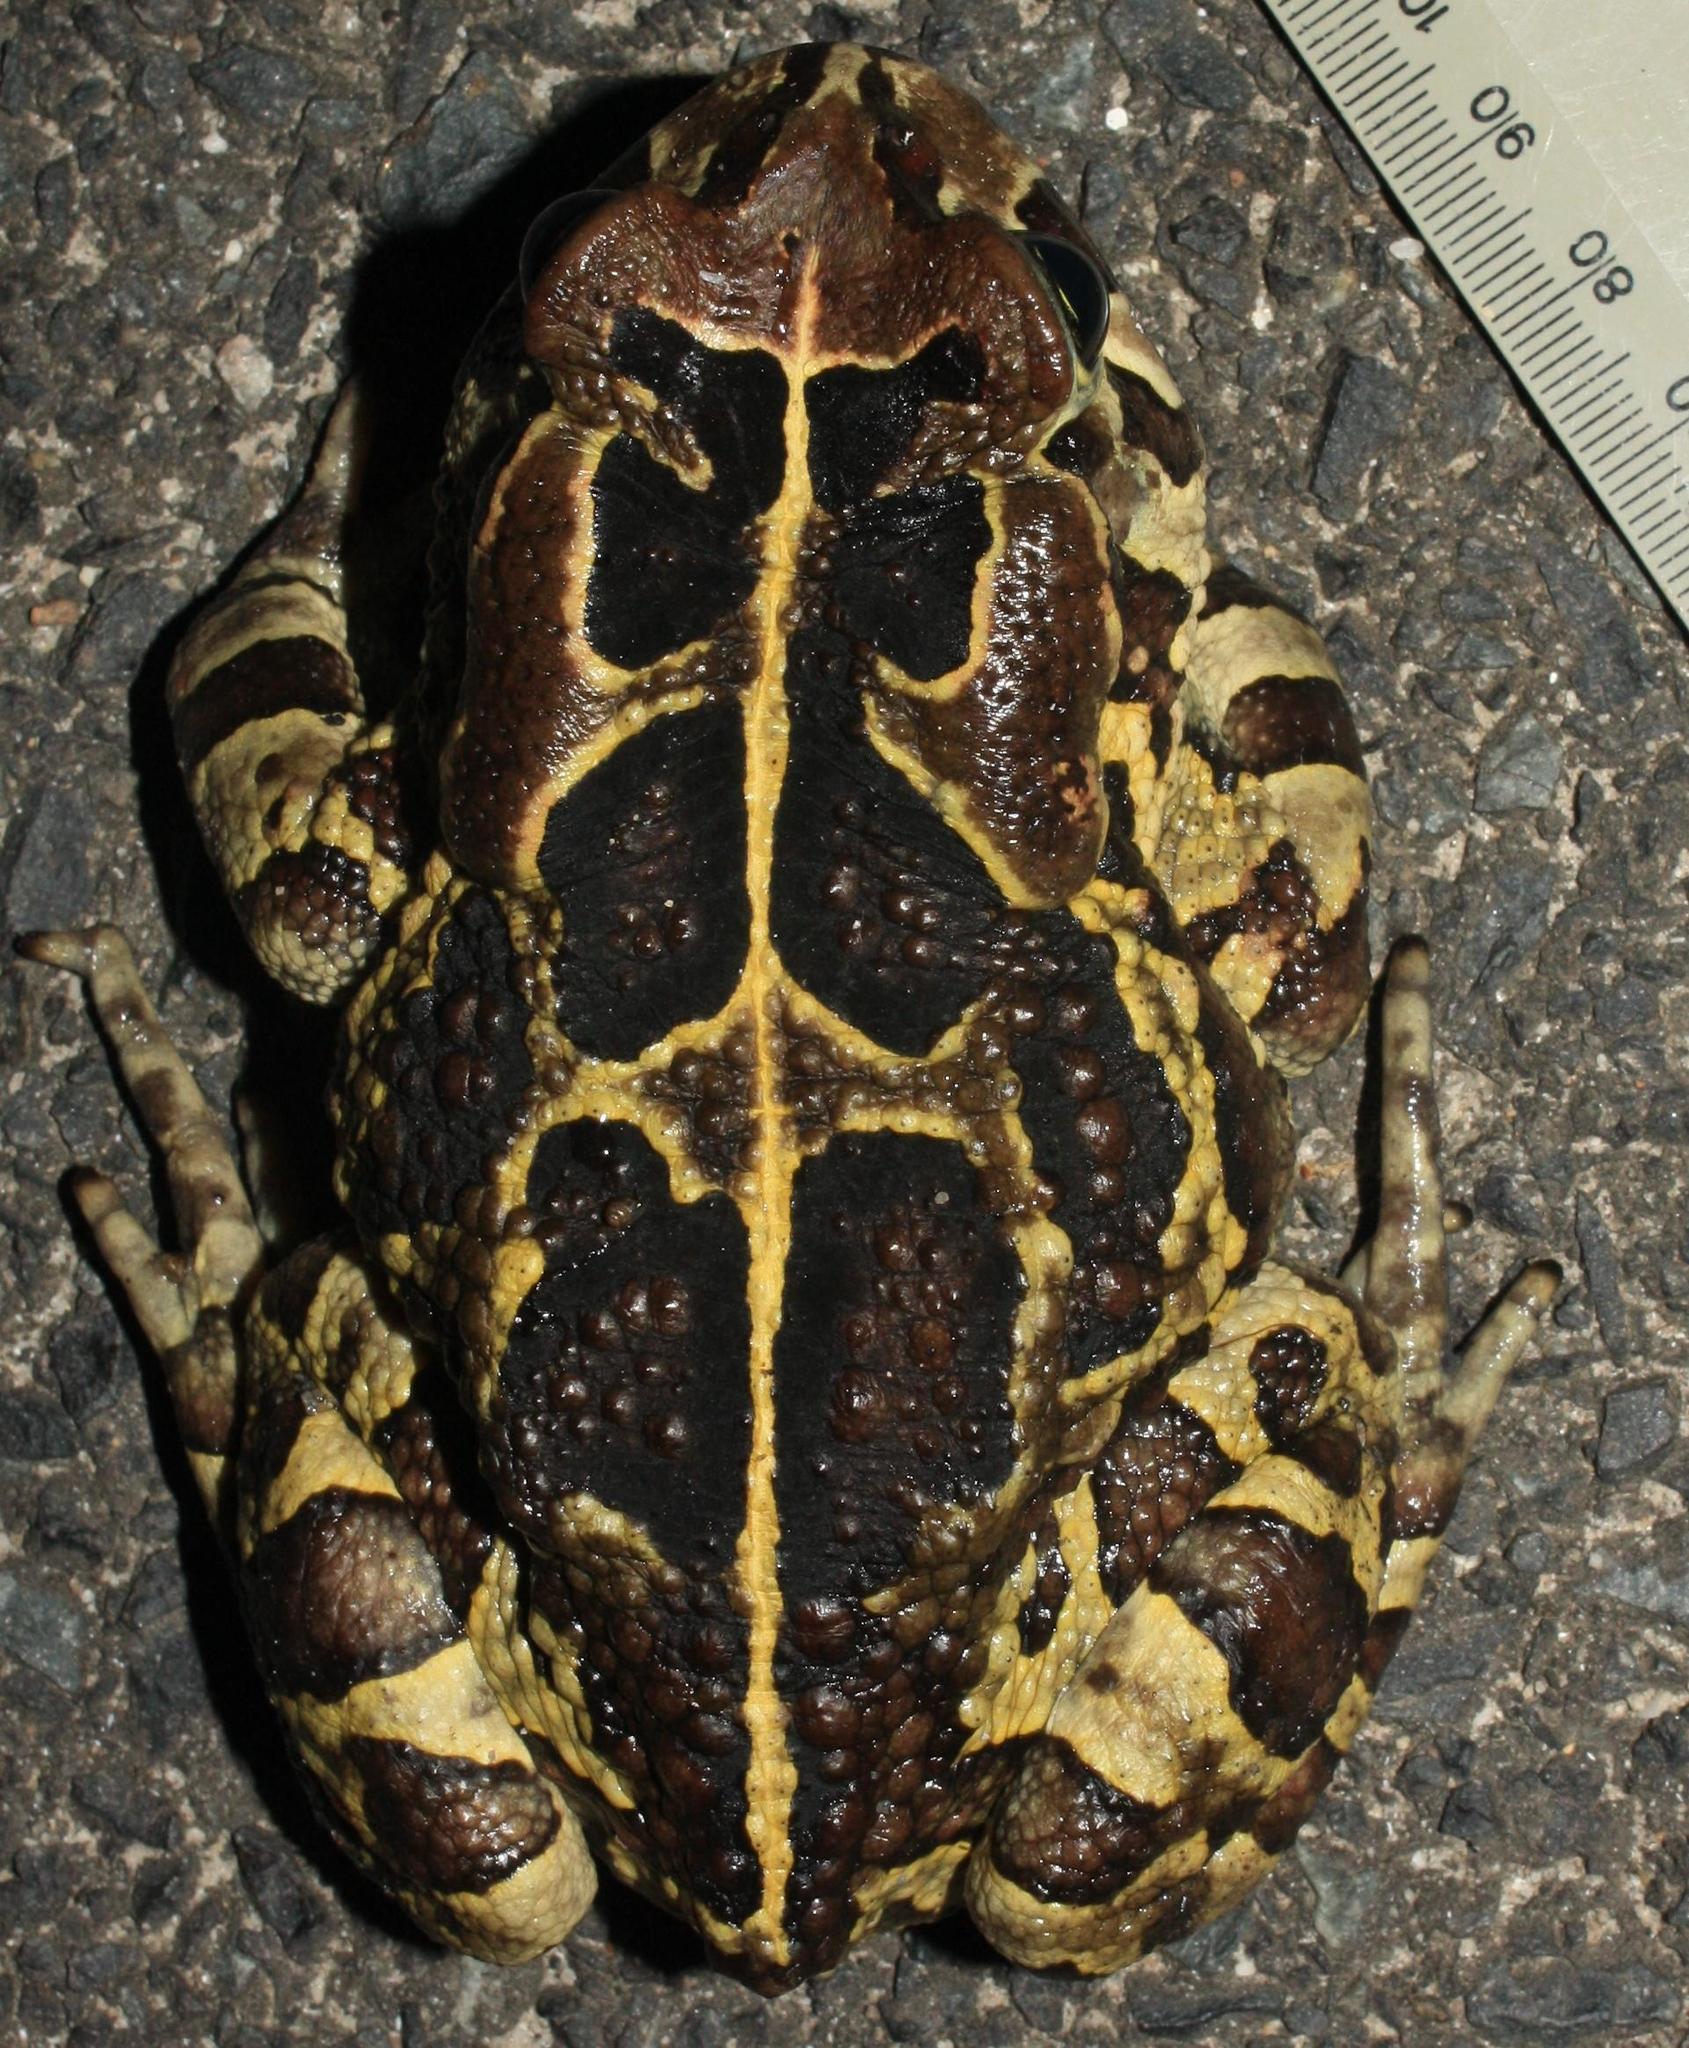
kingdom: Animalia
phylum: Chordata
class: Amphibia
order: Anura
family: Bufonidae
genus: Sclerophrys
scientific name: Sclerophrys pantherina
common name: Panther toad
